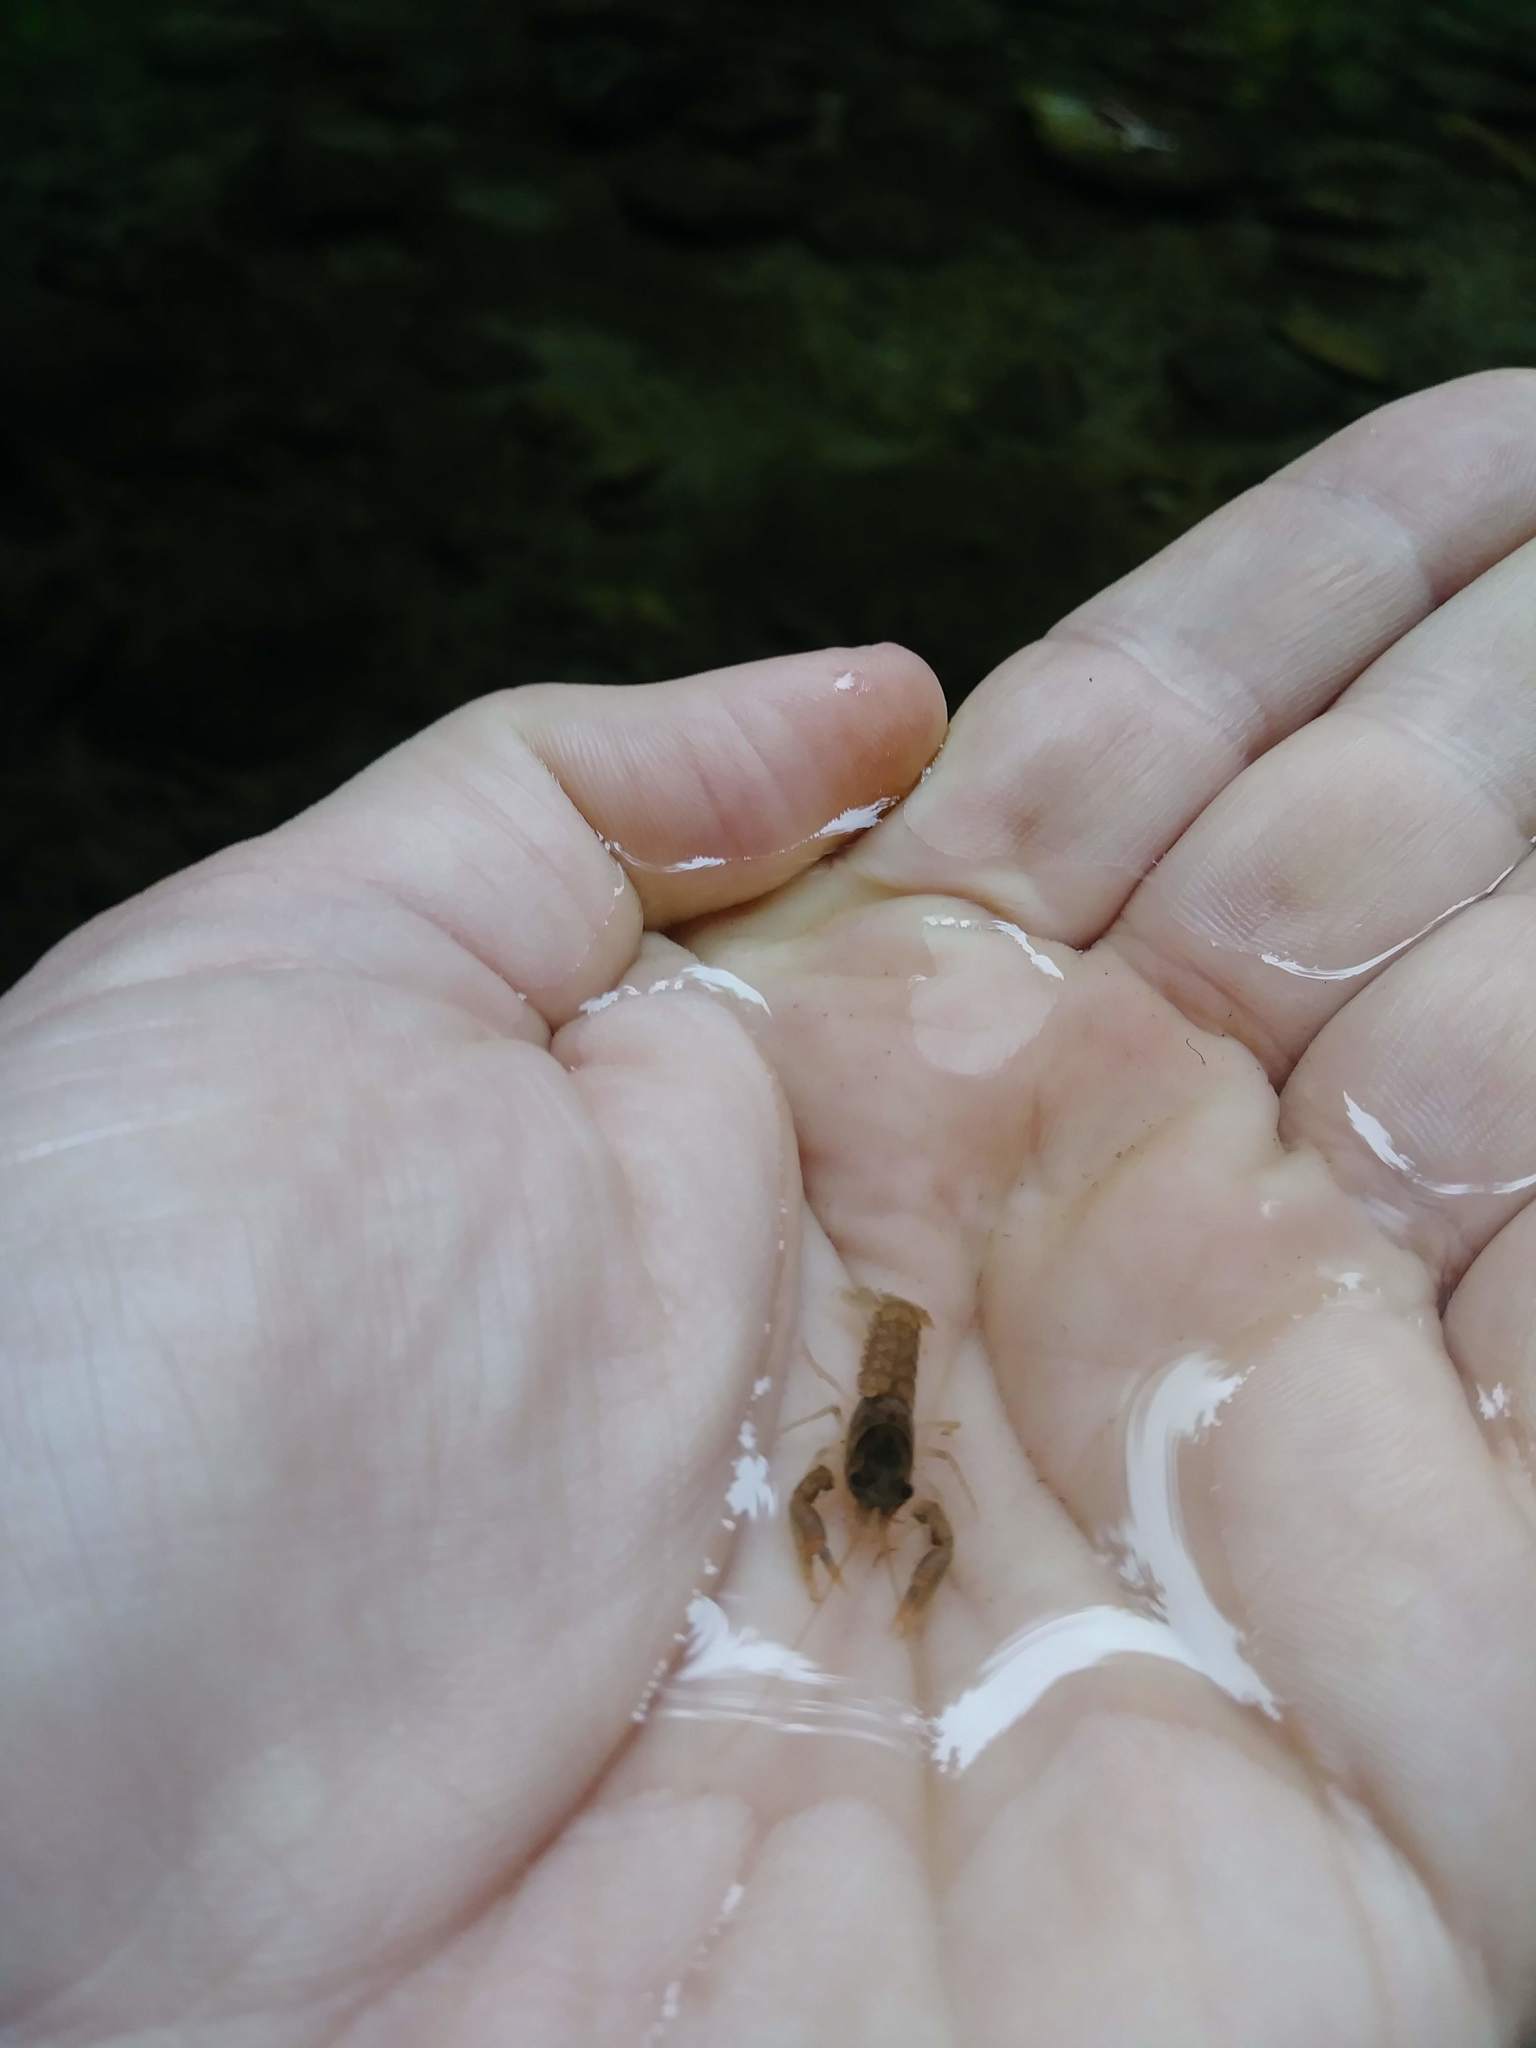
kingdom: Animalia
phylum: Arthropoda
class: Malacostraca
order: Decapoda
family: Astacidae
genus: Pacifastacus
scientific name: Pacifastacus leniusculus
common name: Signal crayfish
